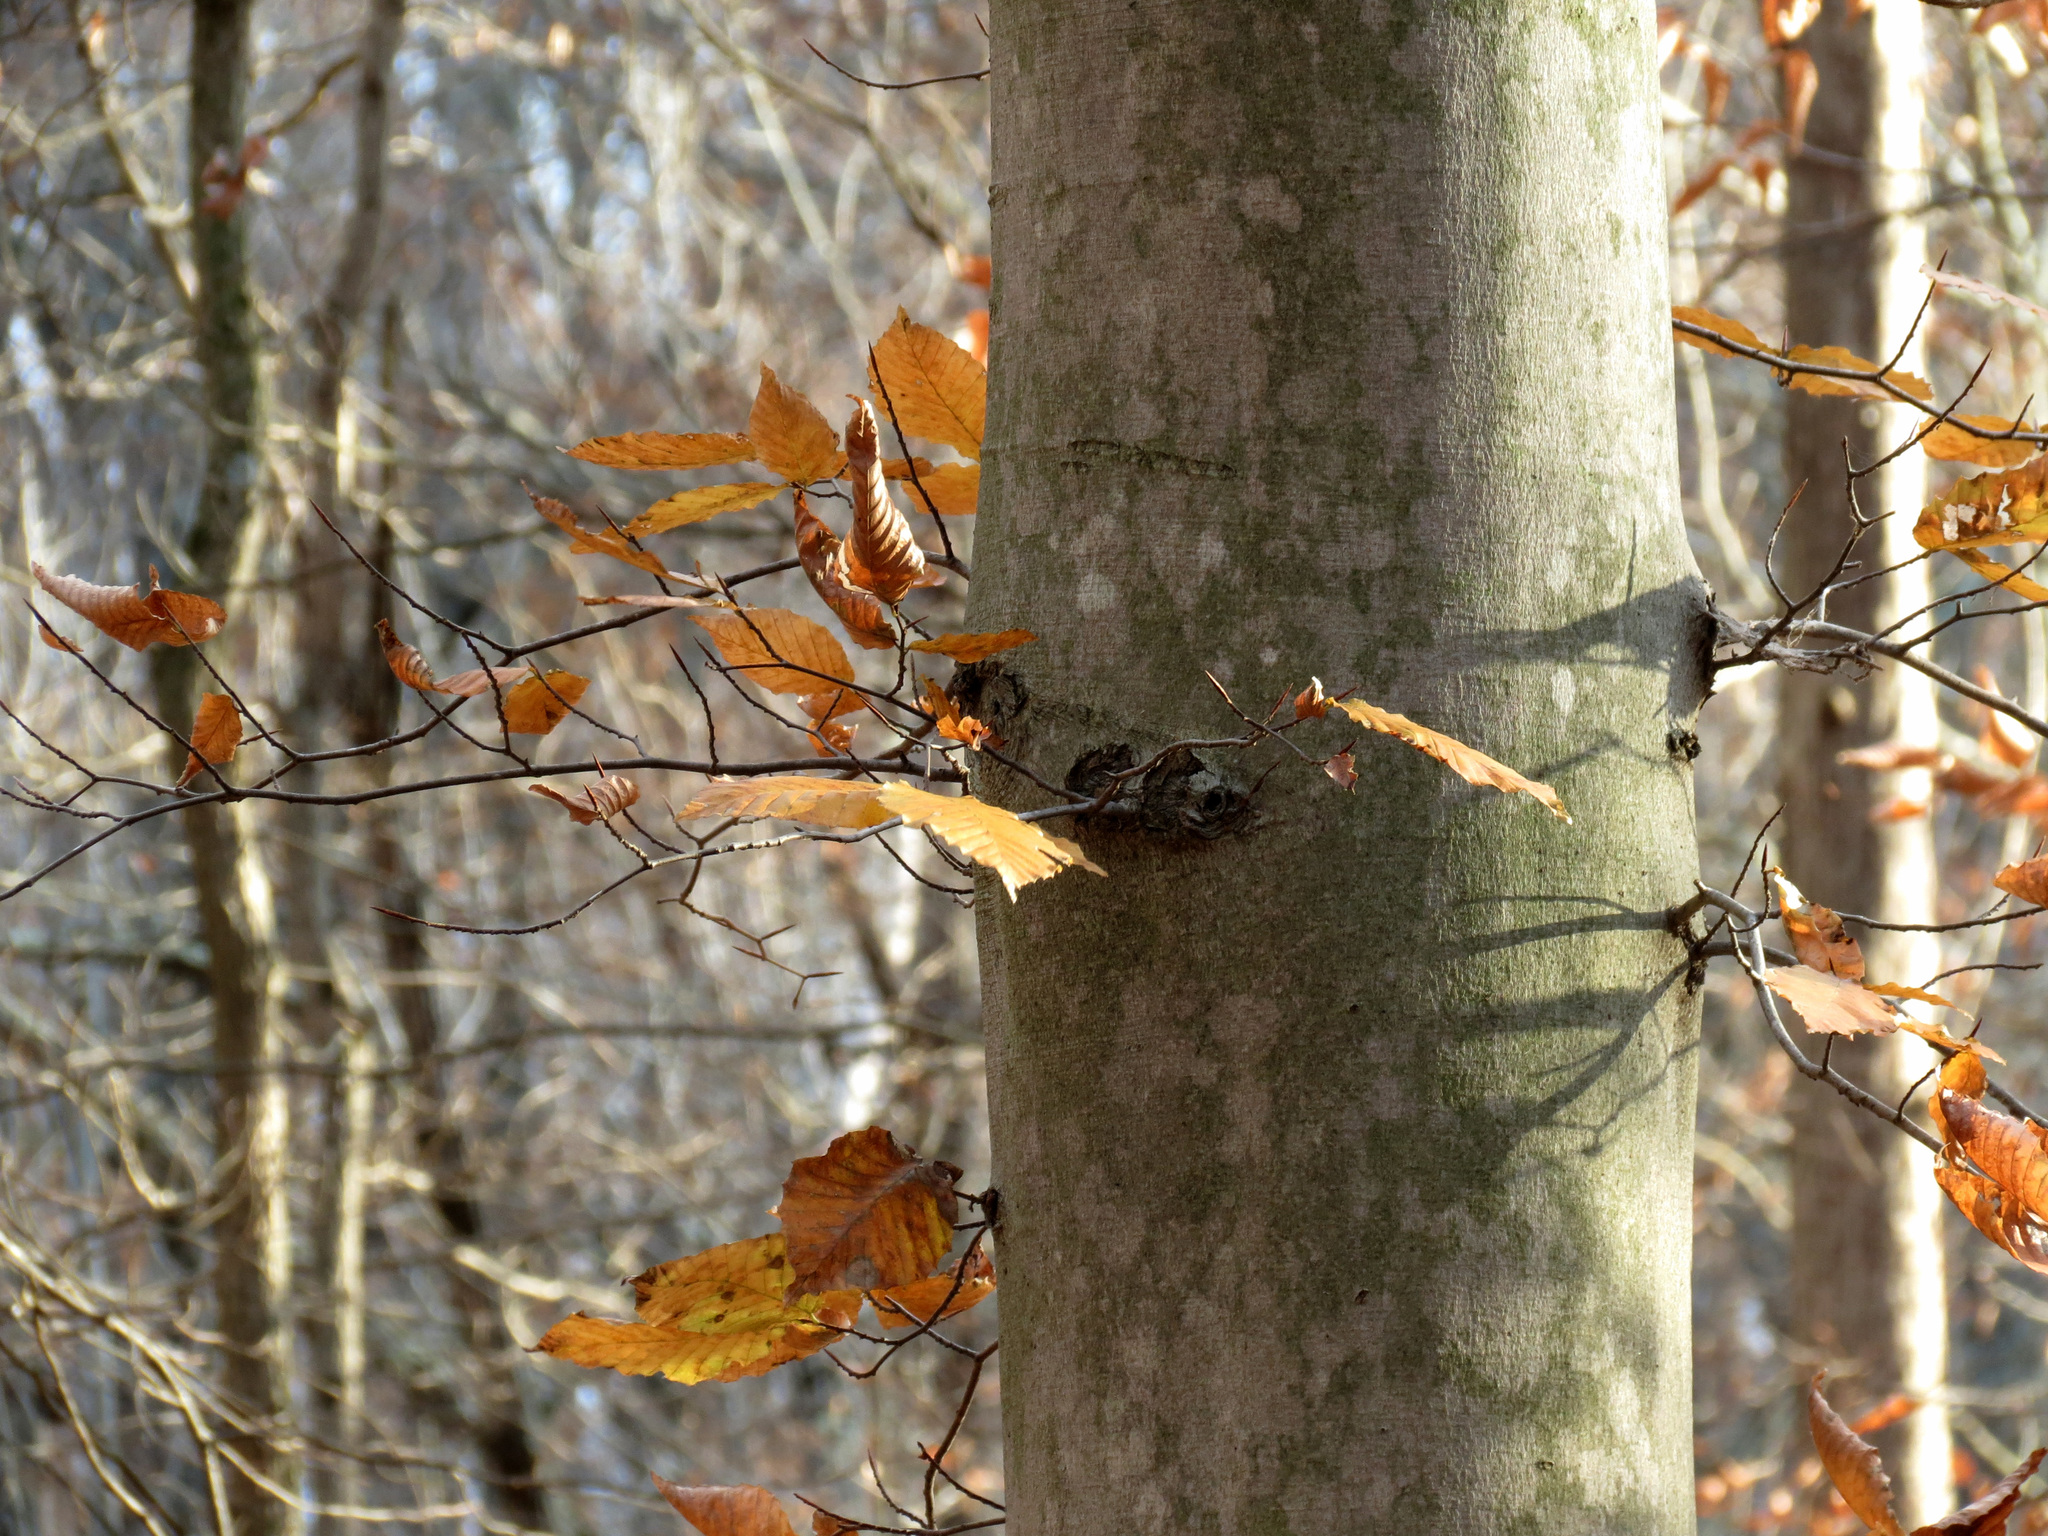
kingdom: Plantae
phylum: Tracheophyta
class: Magnoliopsida
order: Fagales
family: Fagaceae
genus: Fagus
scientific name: Fagus grandifolia
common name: American beech
